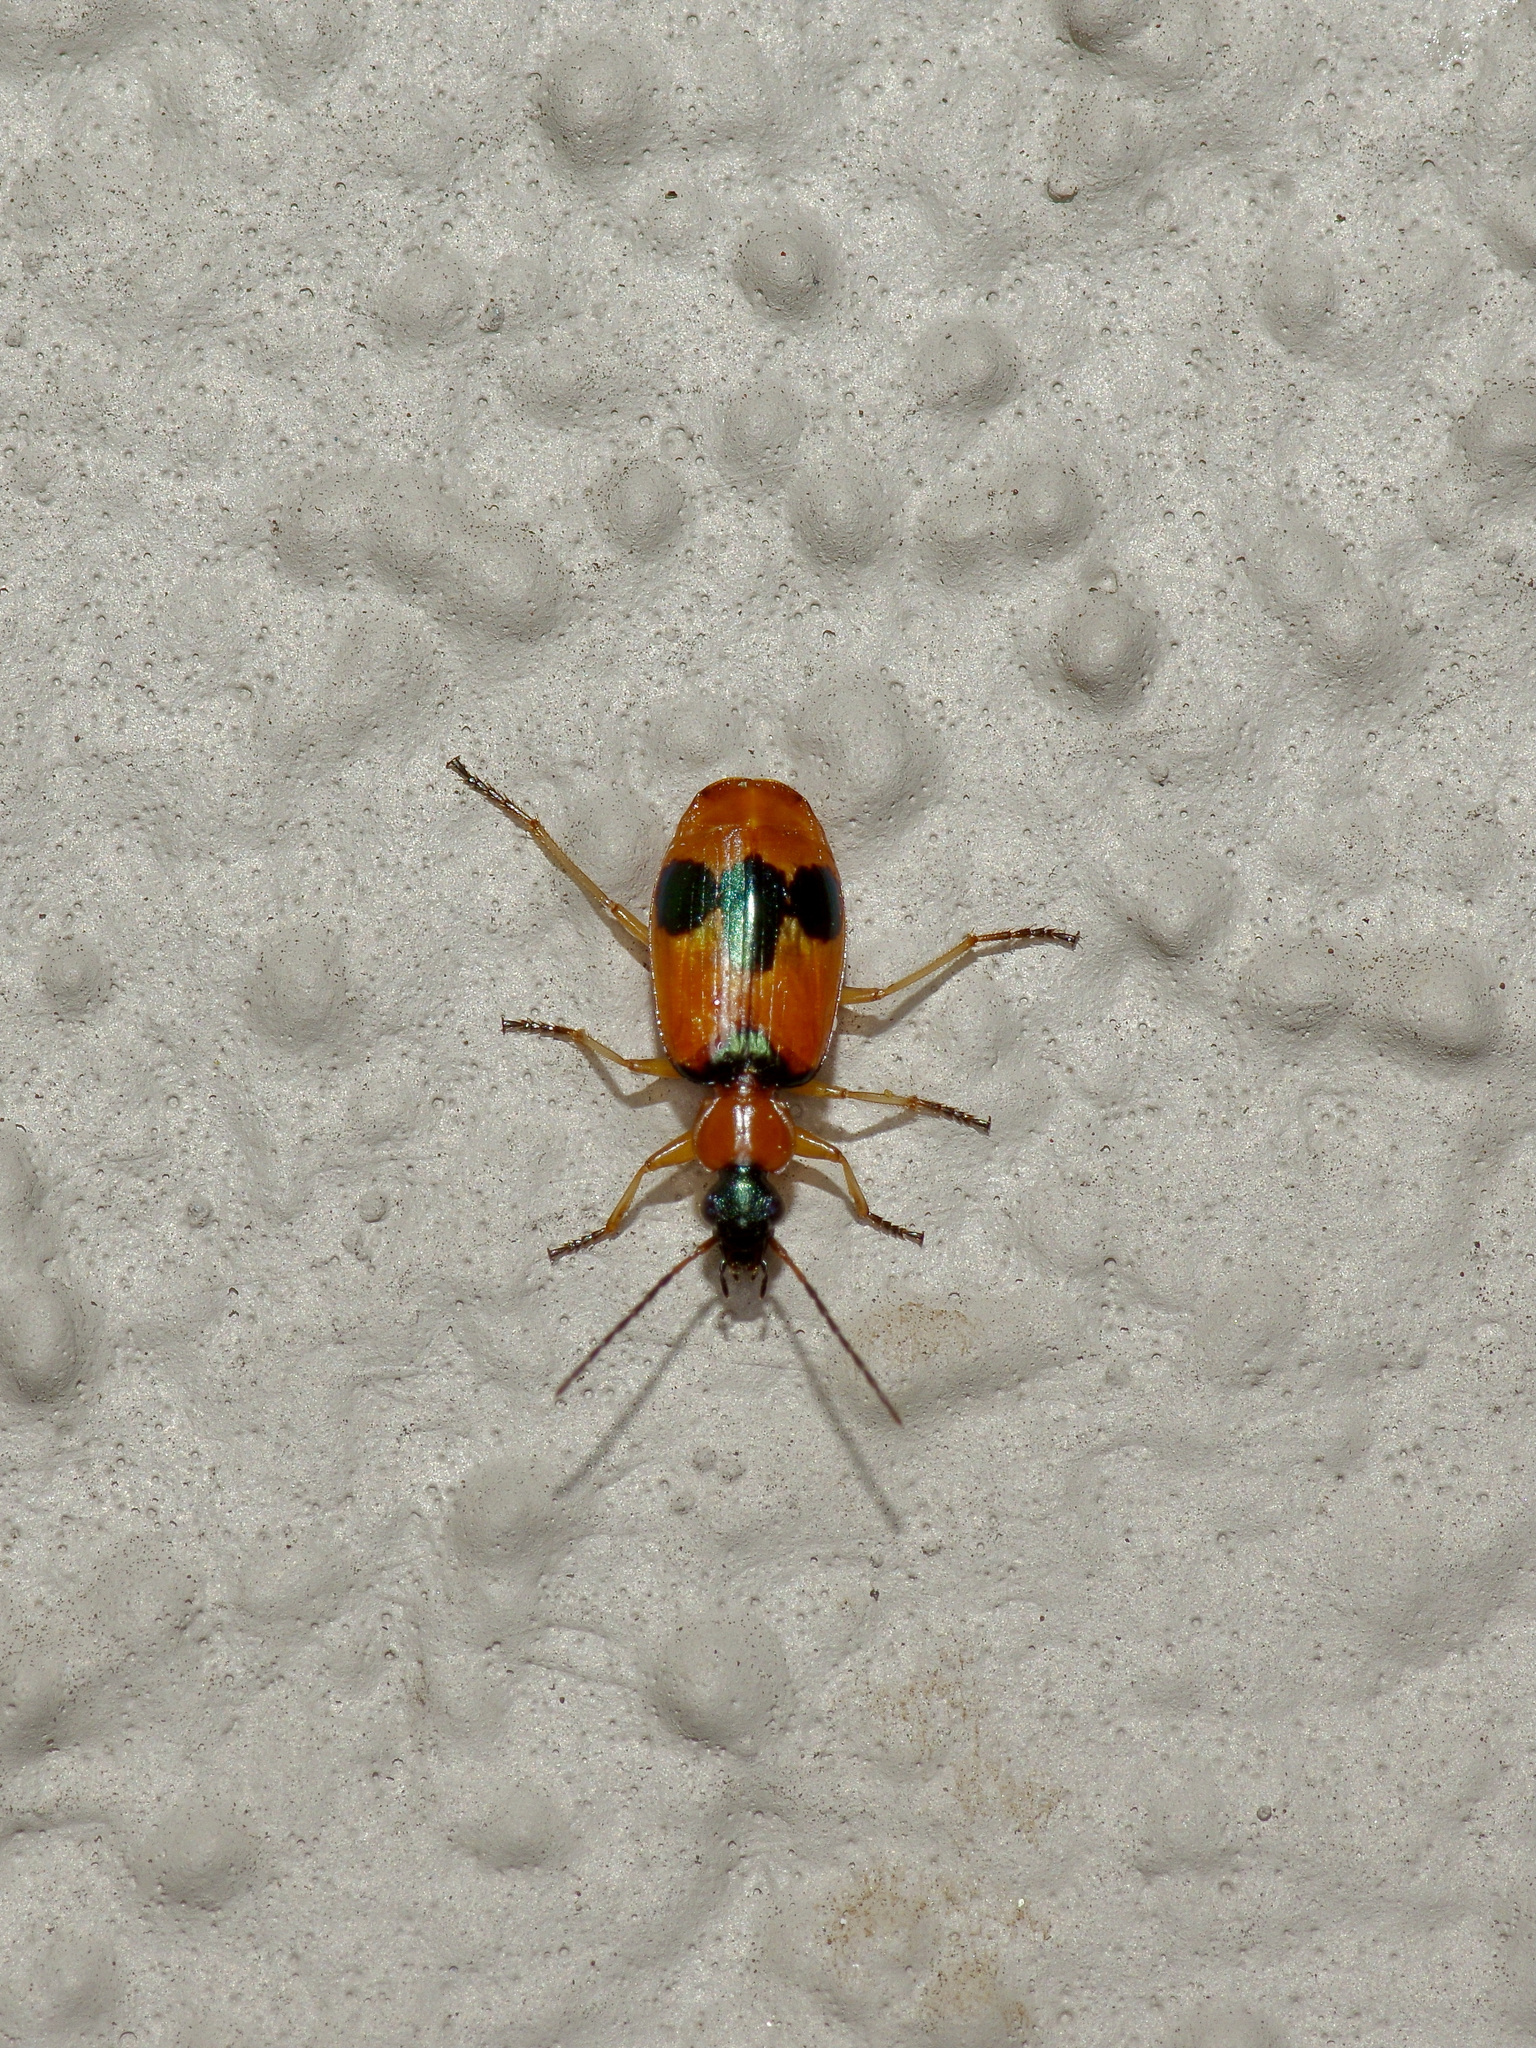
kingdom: Animalia
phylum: Arthropoda
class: Insecta
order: Coleoptera
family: Carabidae
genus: Lebia
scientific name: Lebia pulchella
